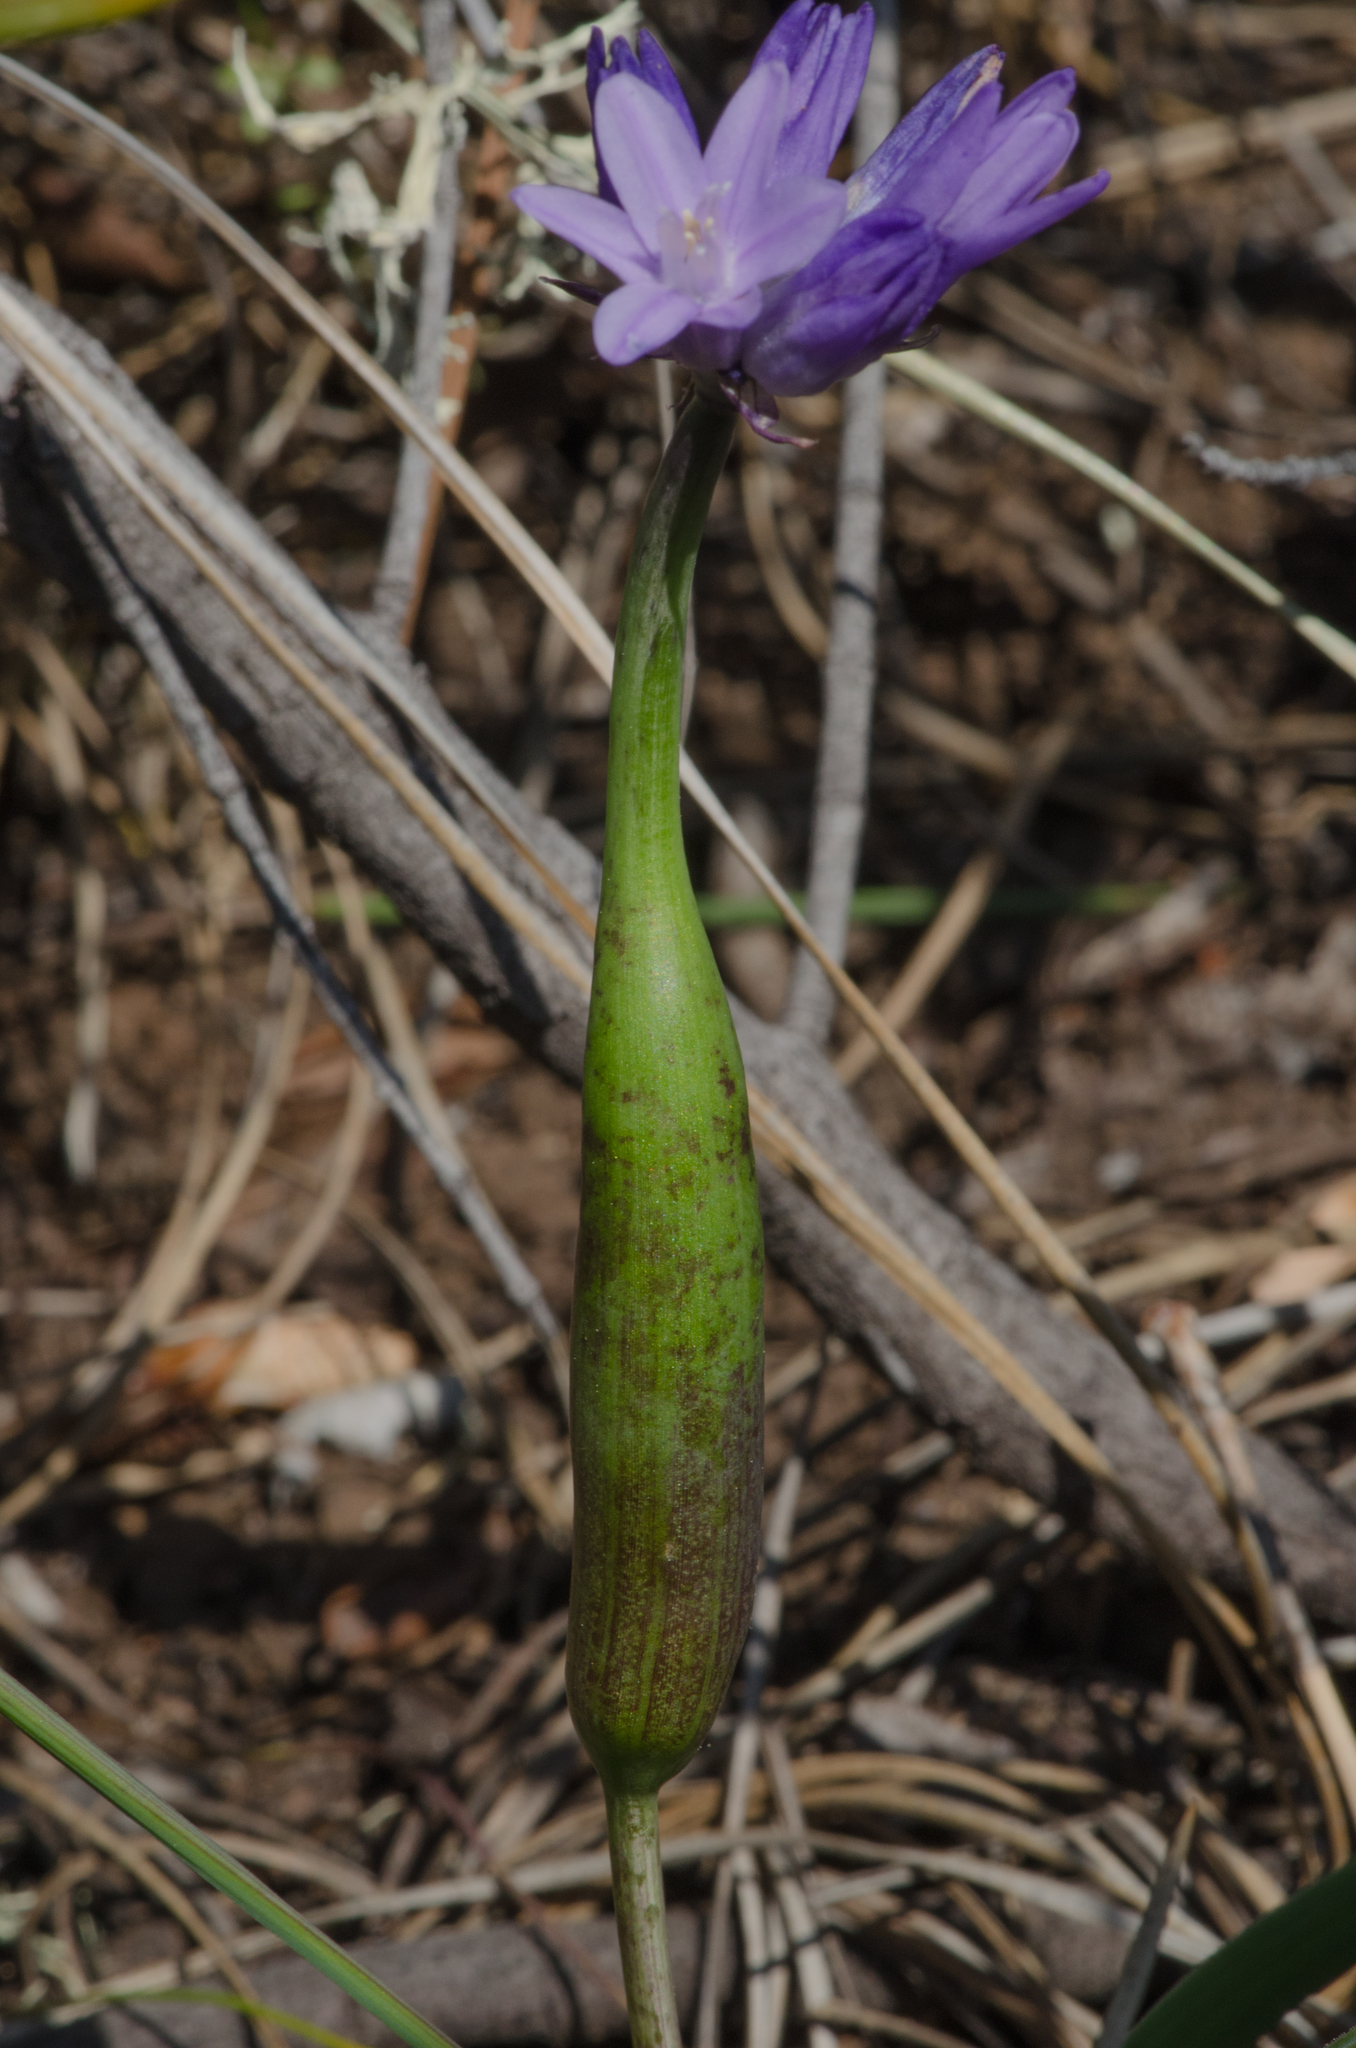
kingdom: Animalia
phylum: Arthropoda
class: Insecta
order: Diptera
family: Cecidomyiidae
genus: Lasioptera
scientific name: Lasioptera
